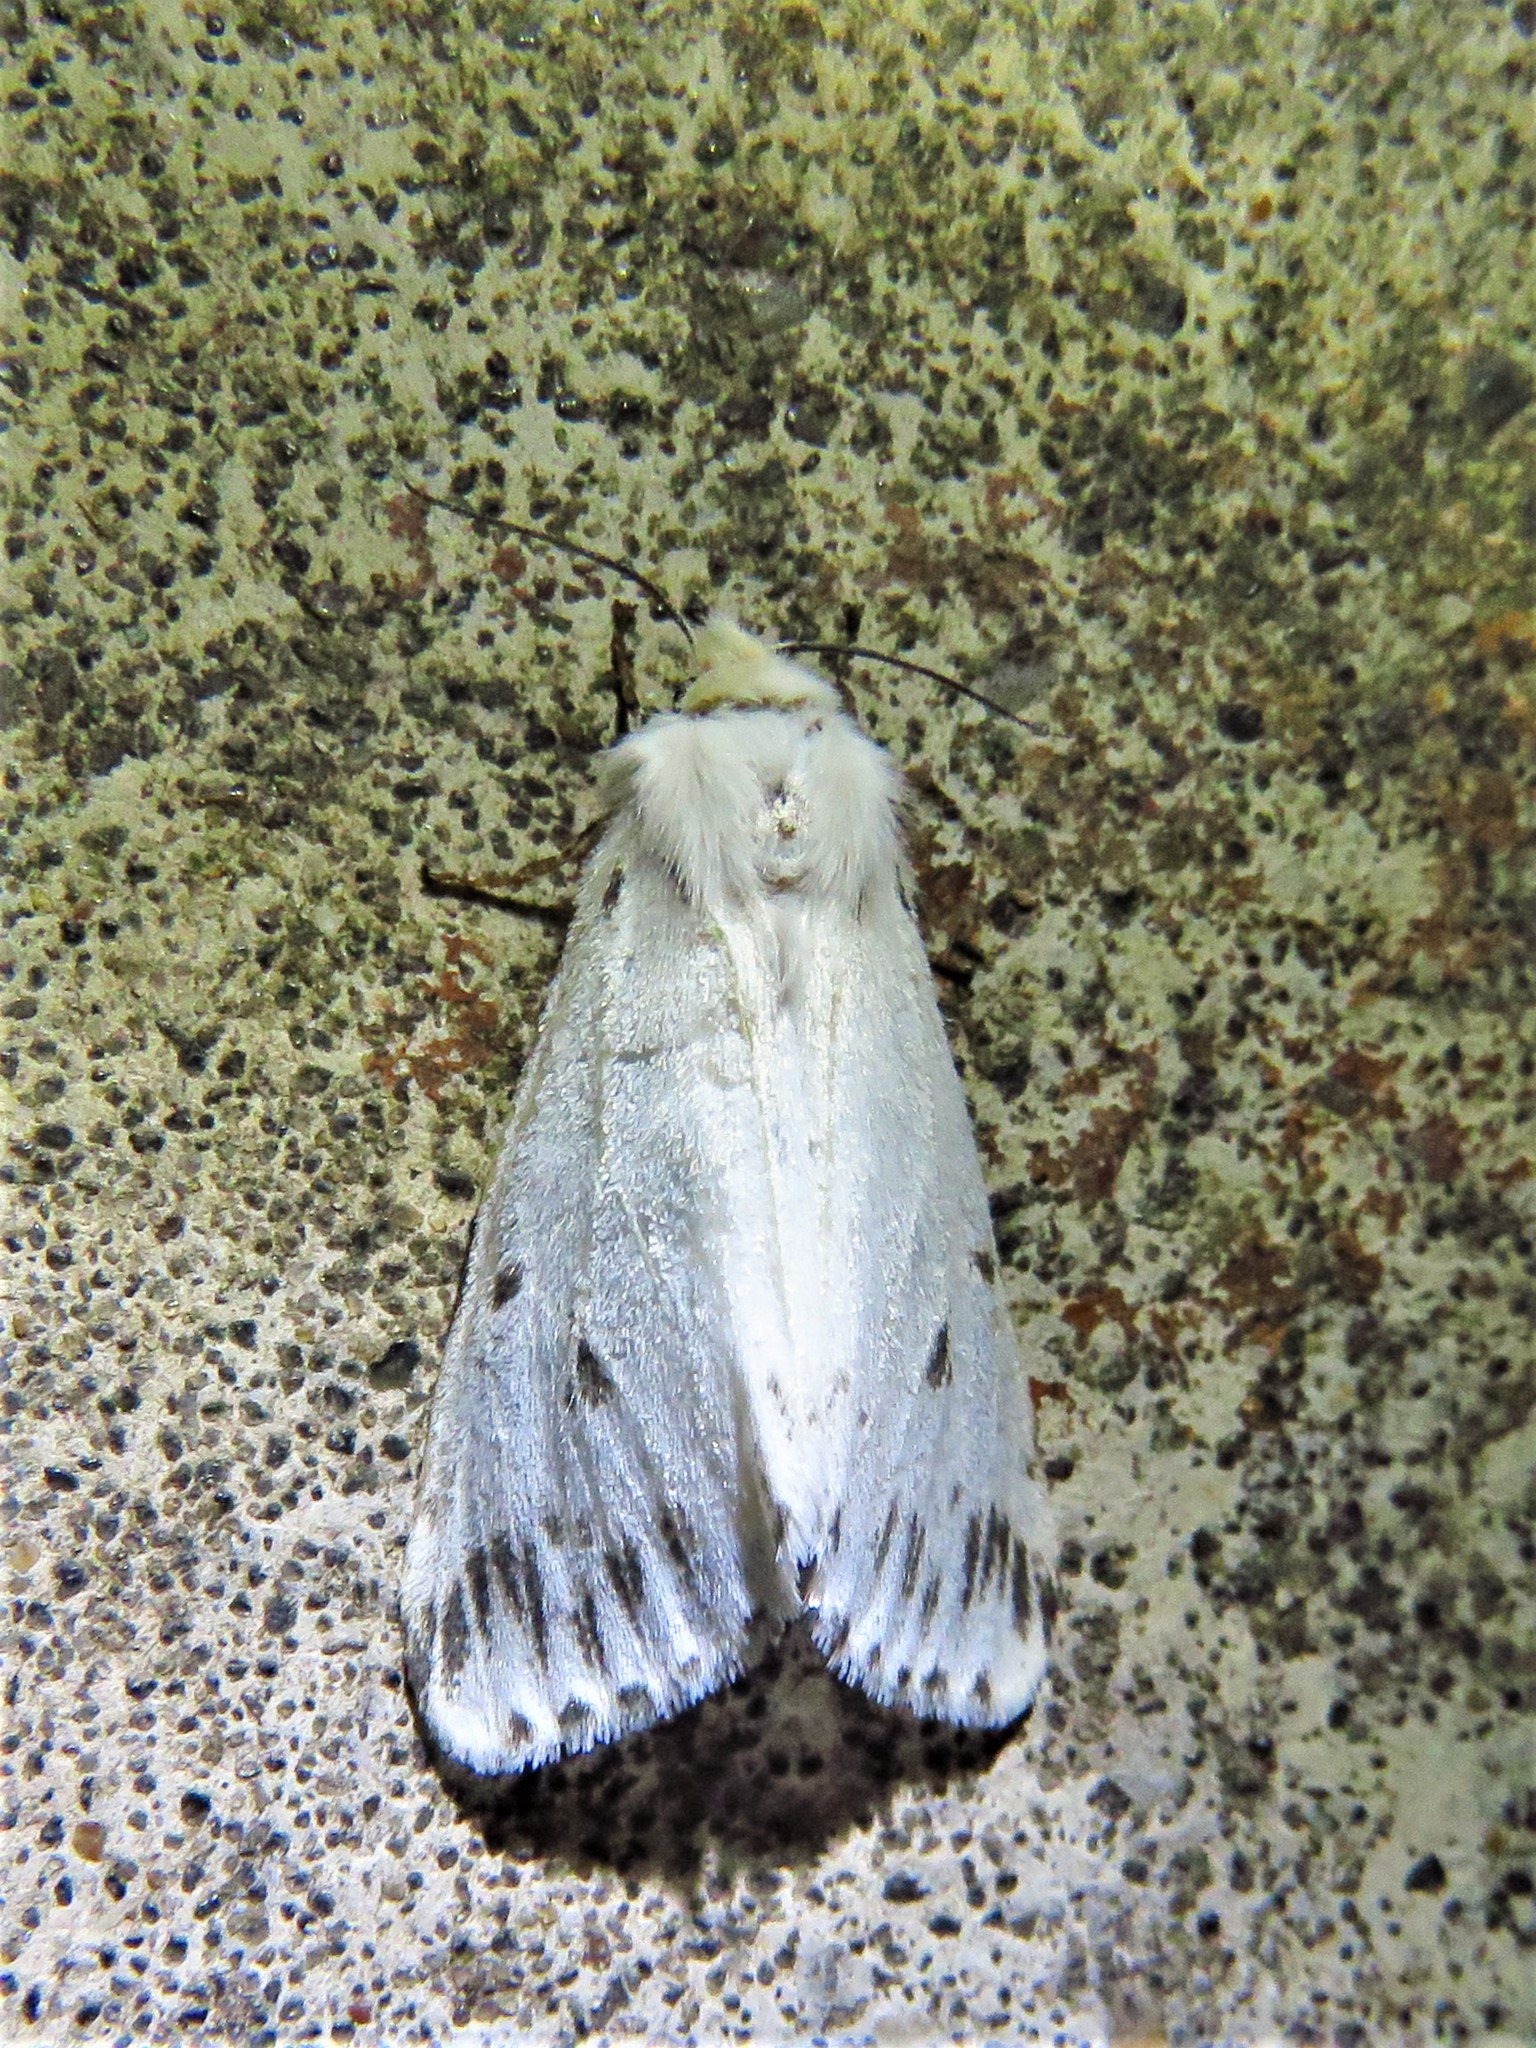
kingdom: Animalia
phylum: Arthropoda
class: Insecta
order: Lepidoptera
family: Erebidae
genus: Hyphantria
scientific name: Hyphantria cunea
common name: American white moth
